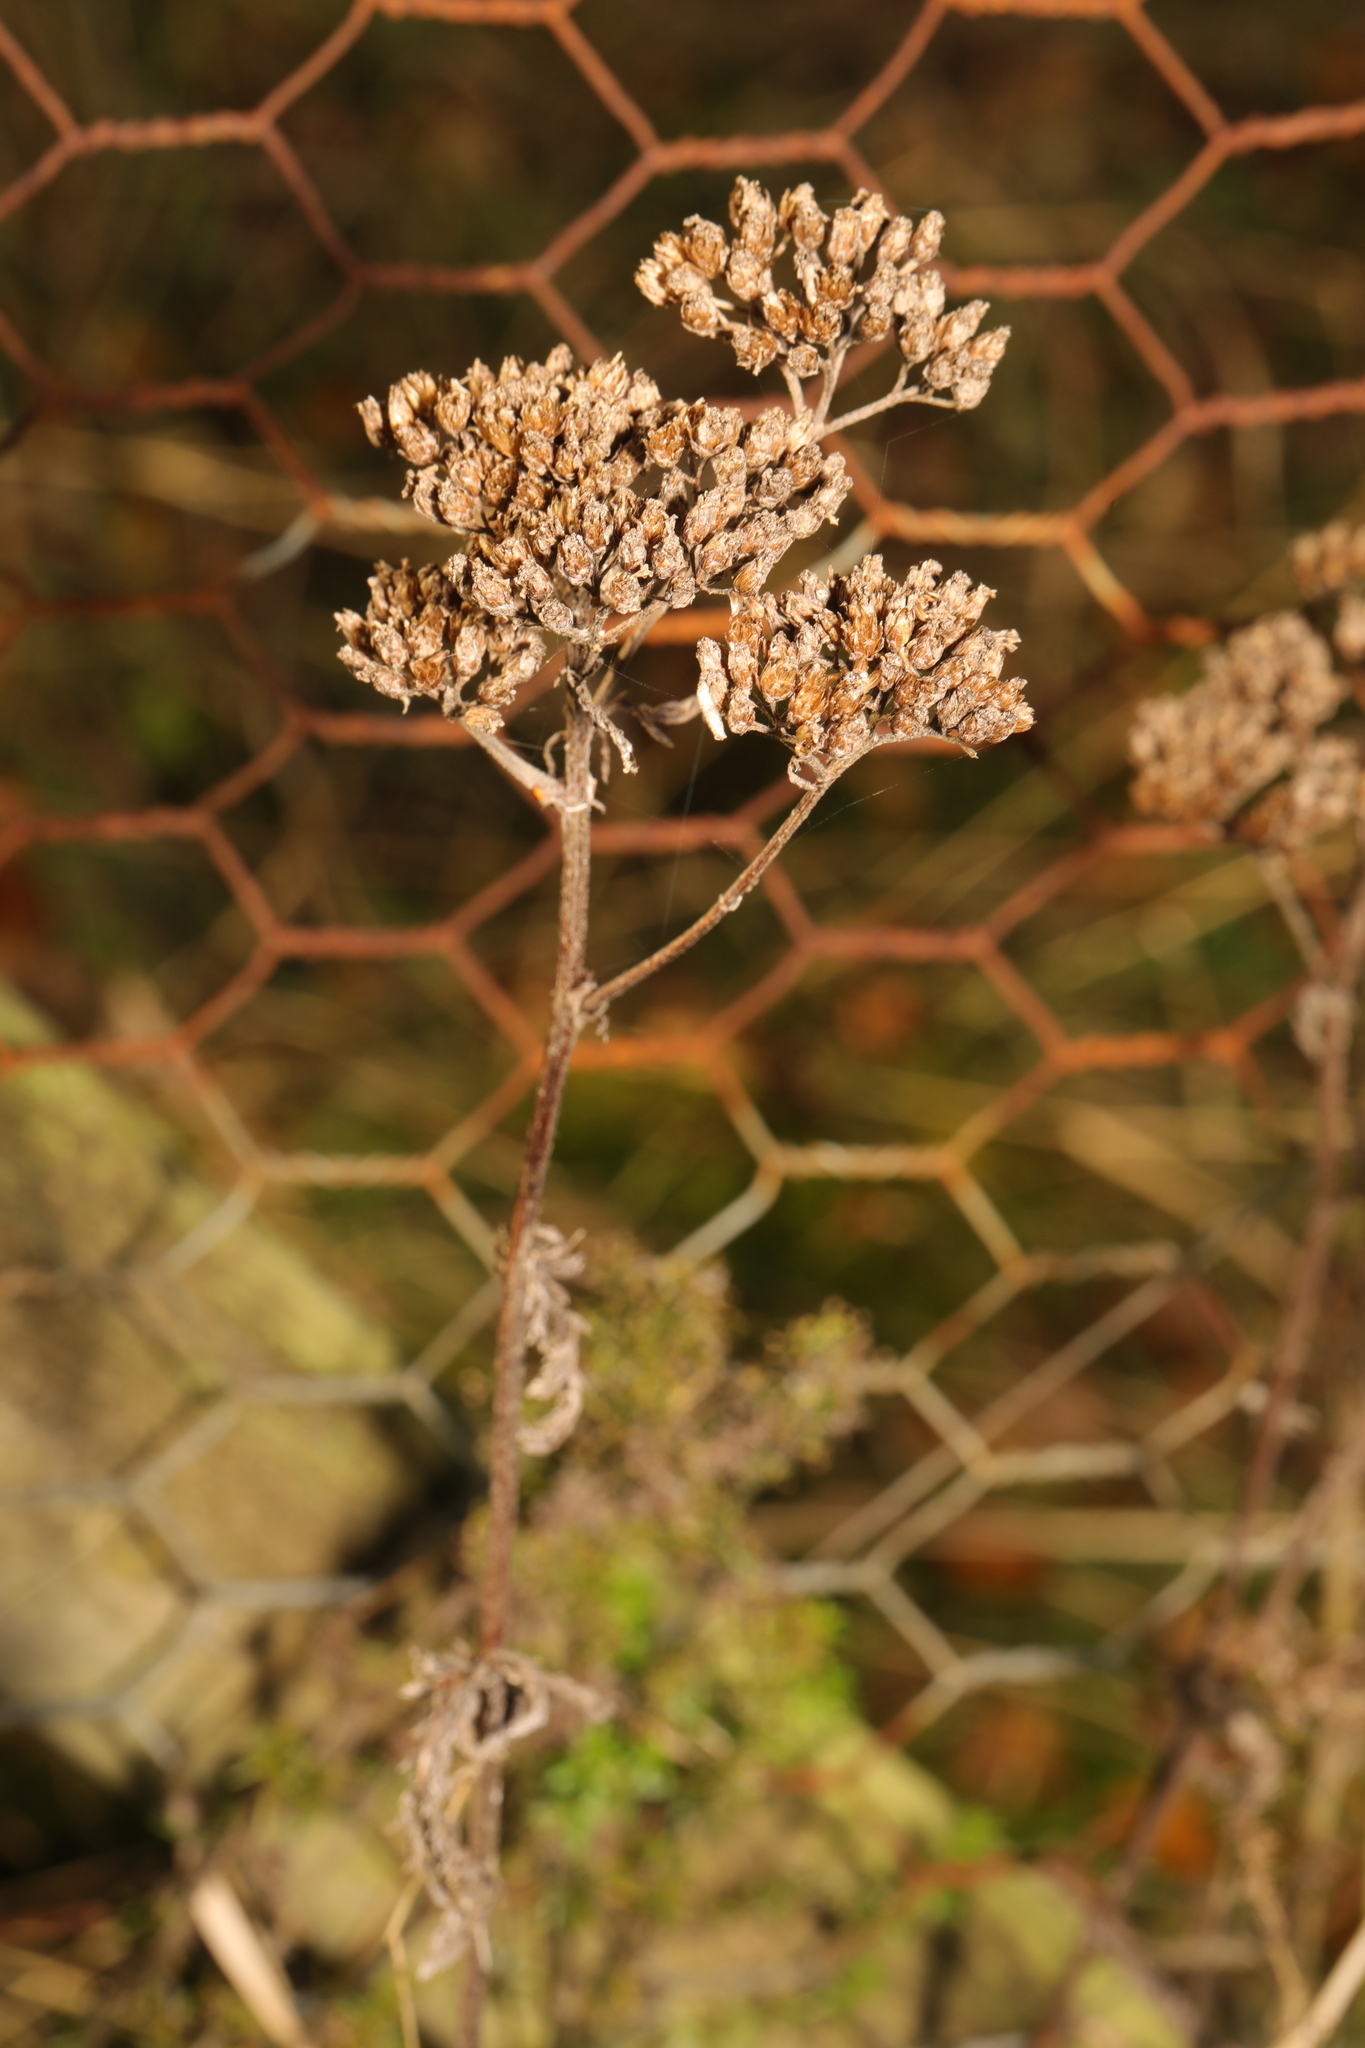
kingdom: Plantae
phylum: Tracheophyta
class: Magnoliopsida
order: Asterales
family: Asteraceae
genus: Achillea
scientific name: Achillea millefolium
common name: Yarrow
